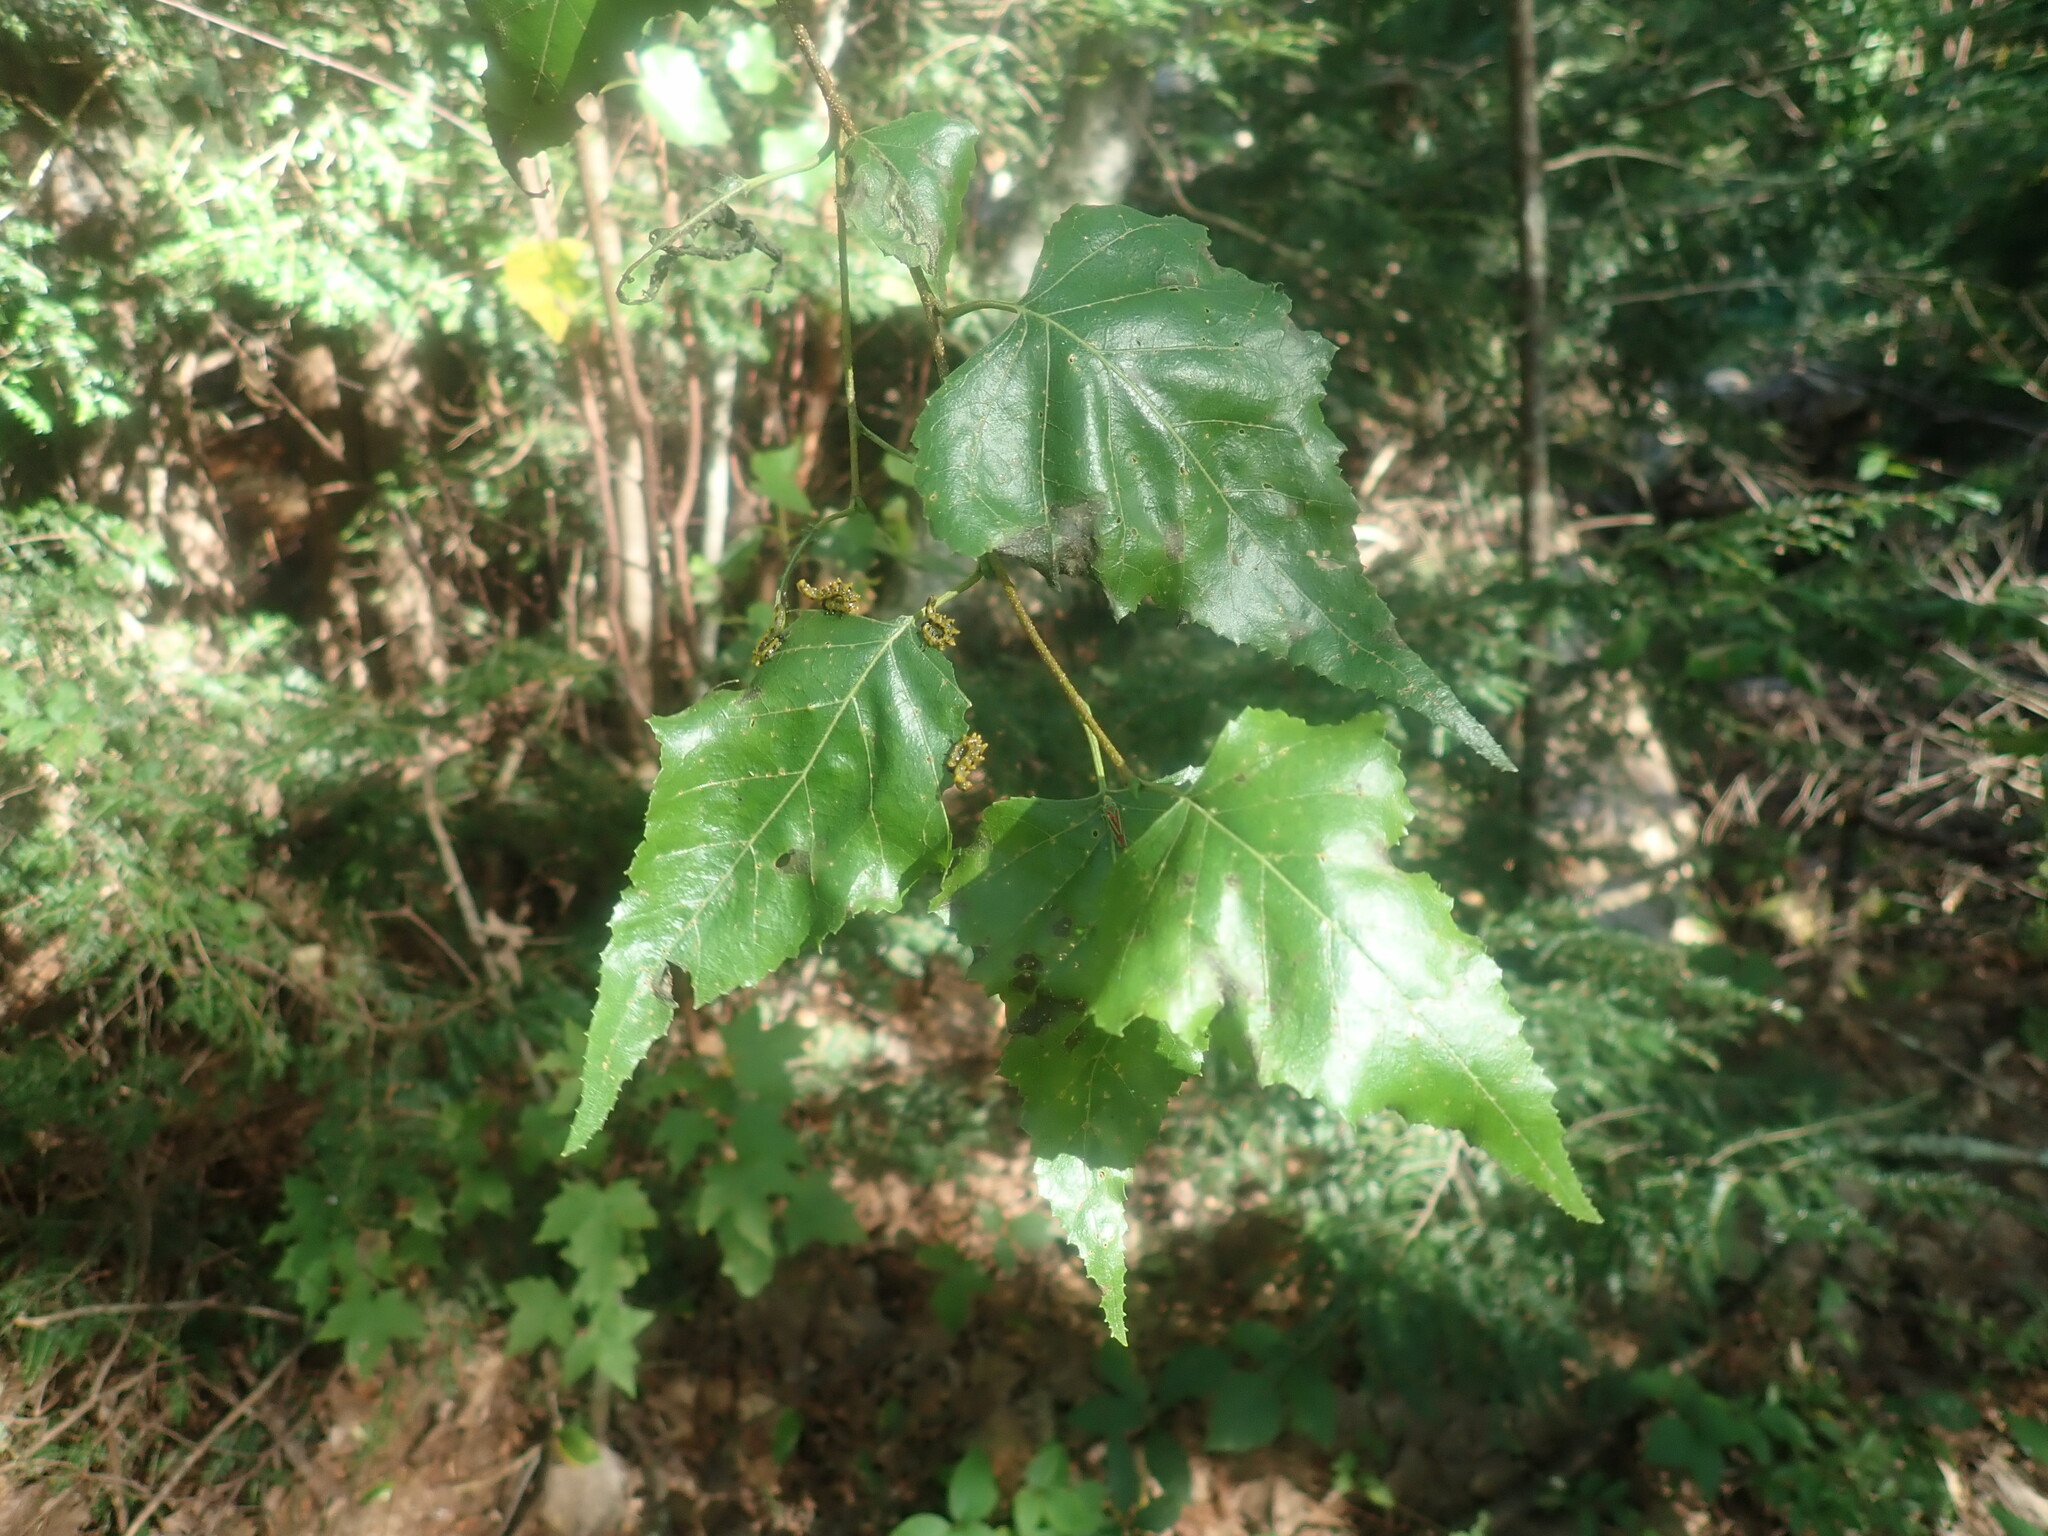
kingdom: Plantae
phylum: Tracheophyta
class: Magnoliopsida
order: Fagales
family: Betulaceae
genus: Betula
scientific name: Betula populifolia
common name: Fire birch
